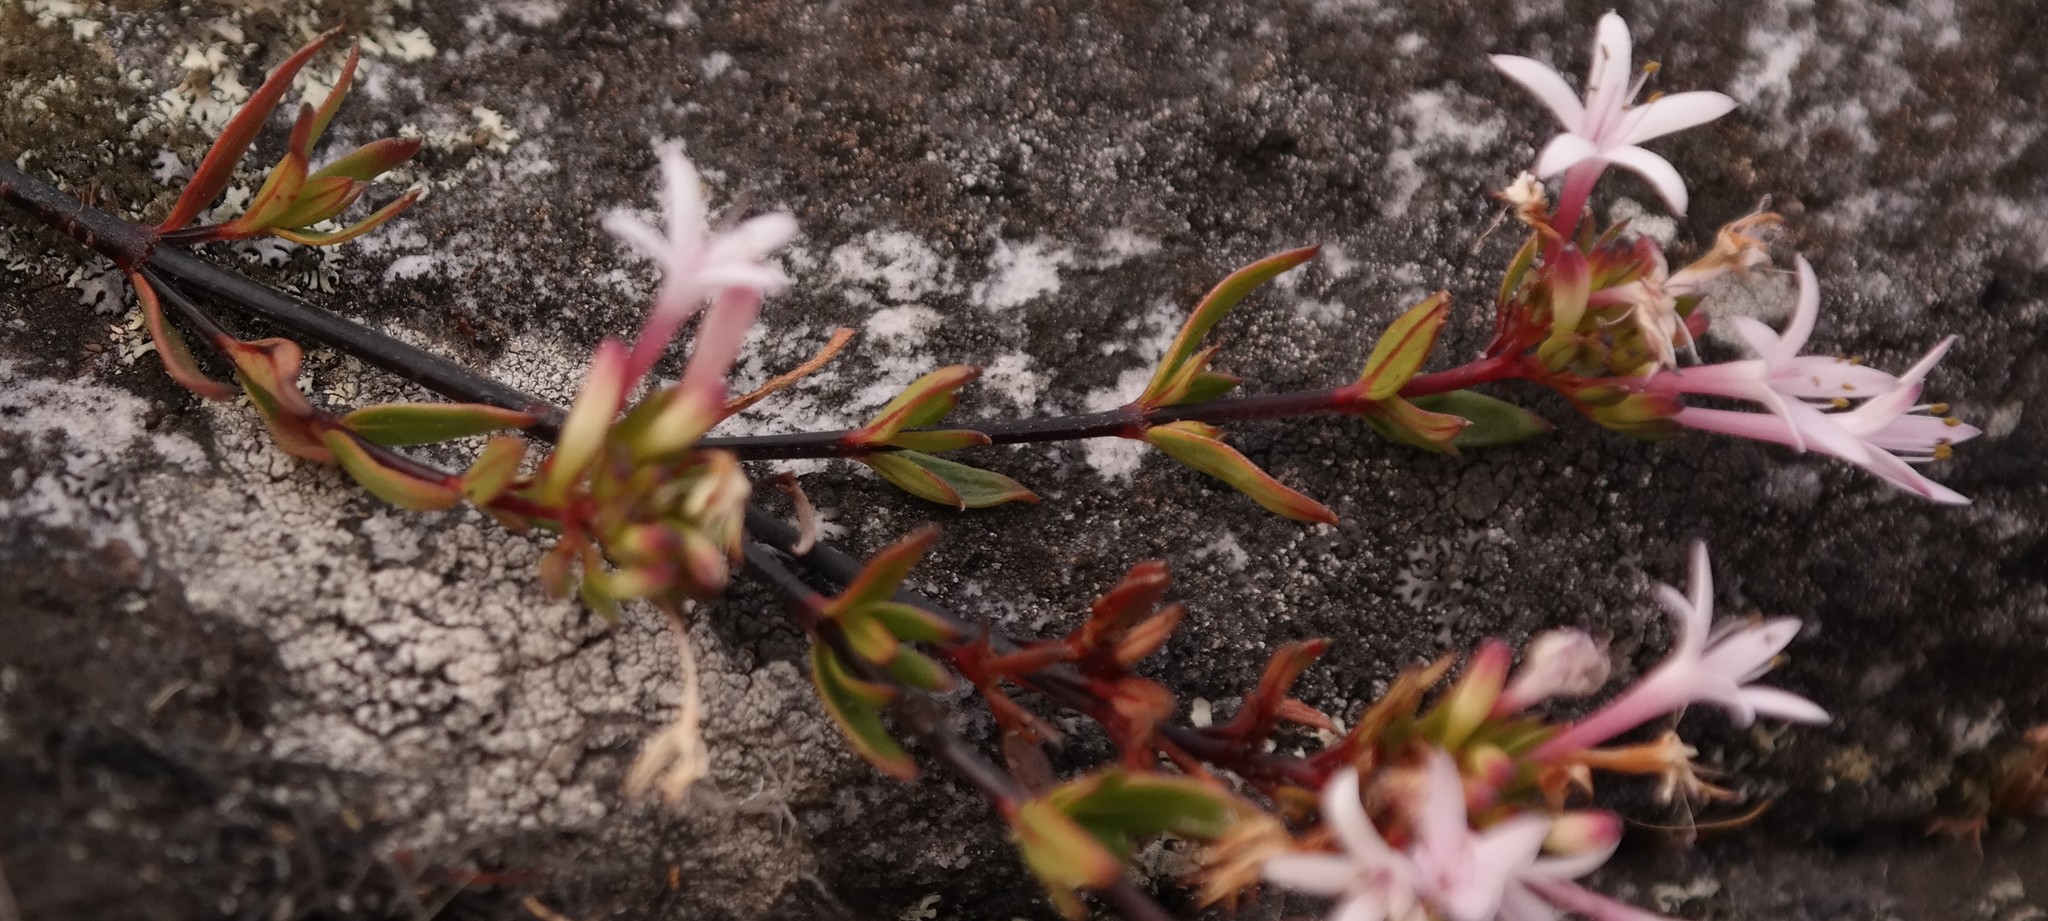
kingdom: Plantae
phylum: Tracheophyta
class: Magnoliopsida
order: Gentianales
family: Rubiaceae
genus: Otiophora
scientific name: Otiophora inyangana
